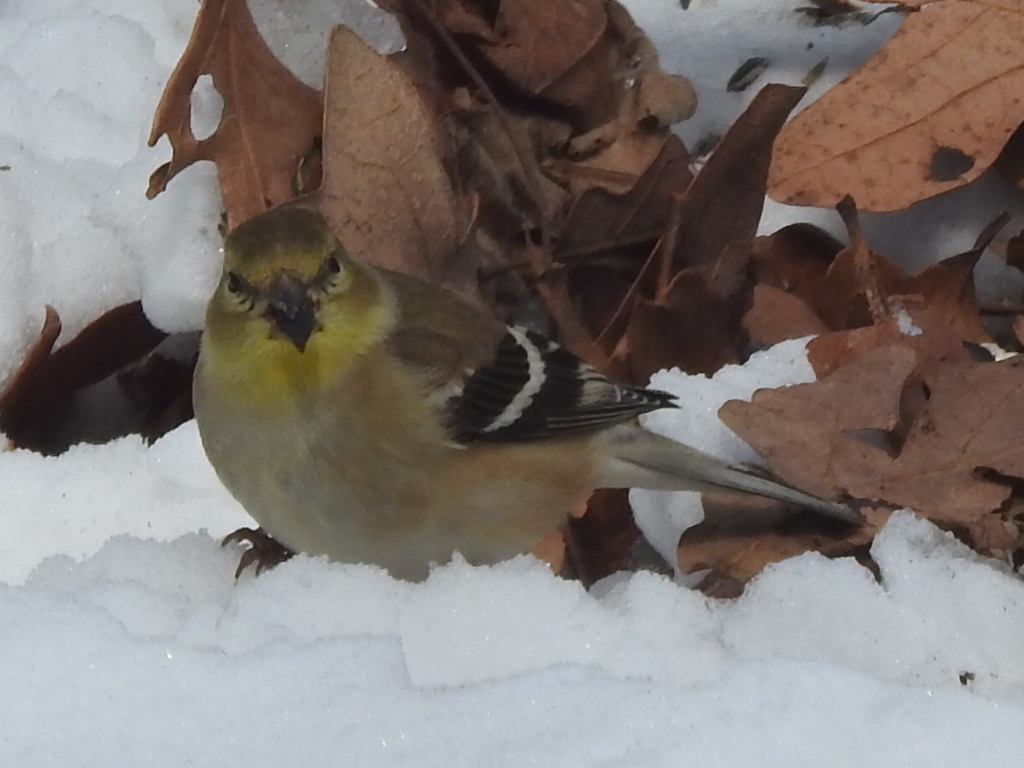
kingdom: Animalia
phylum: Chordata
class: Aves
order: Passeriformes
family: Fringillidae
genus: Spinus
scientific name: Spinus tristis
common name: American goldfinch
